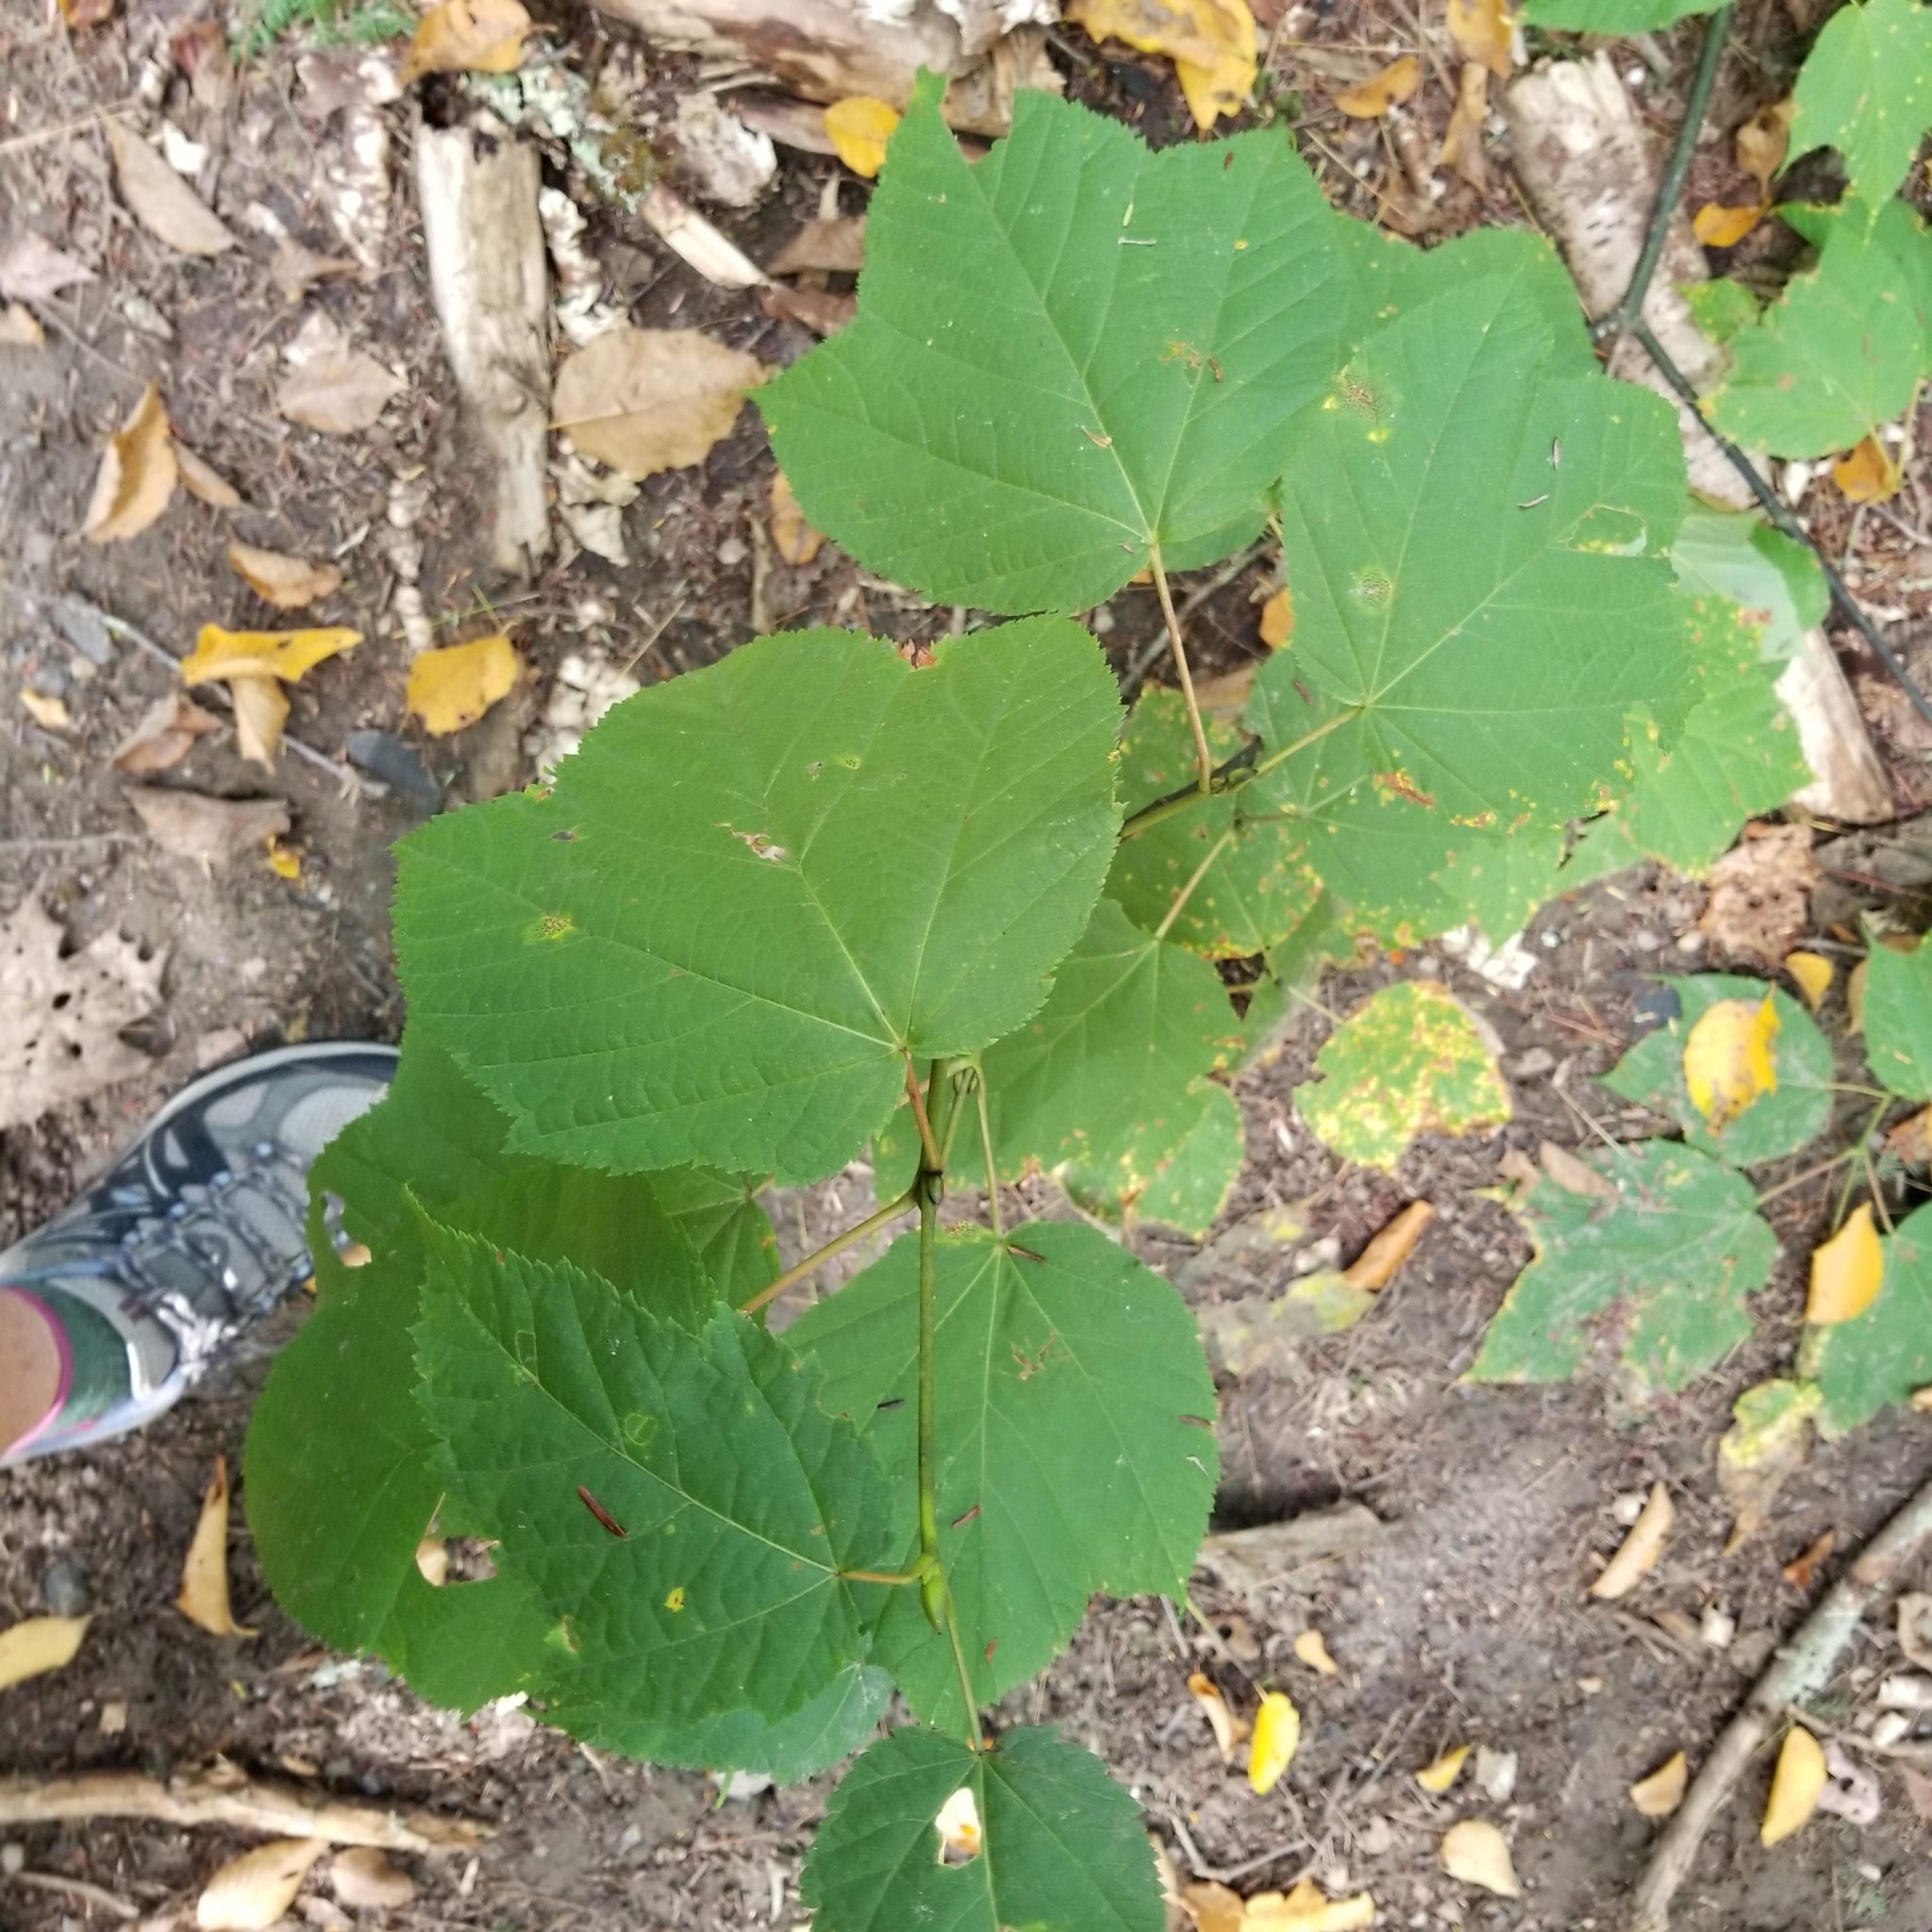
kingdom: Plantae
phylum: Tracheophyta
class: Magnoliopsida
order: Sapindales
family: Sapindaceae
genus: Acer
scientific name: Acer pensylvanicum
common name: Moosewood
